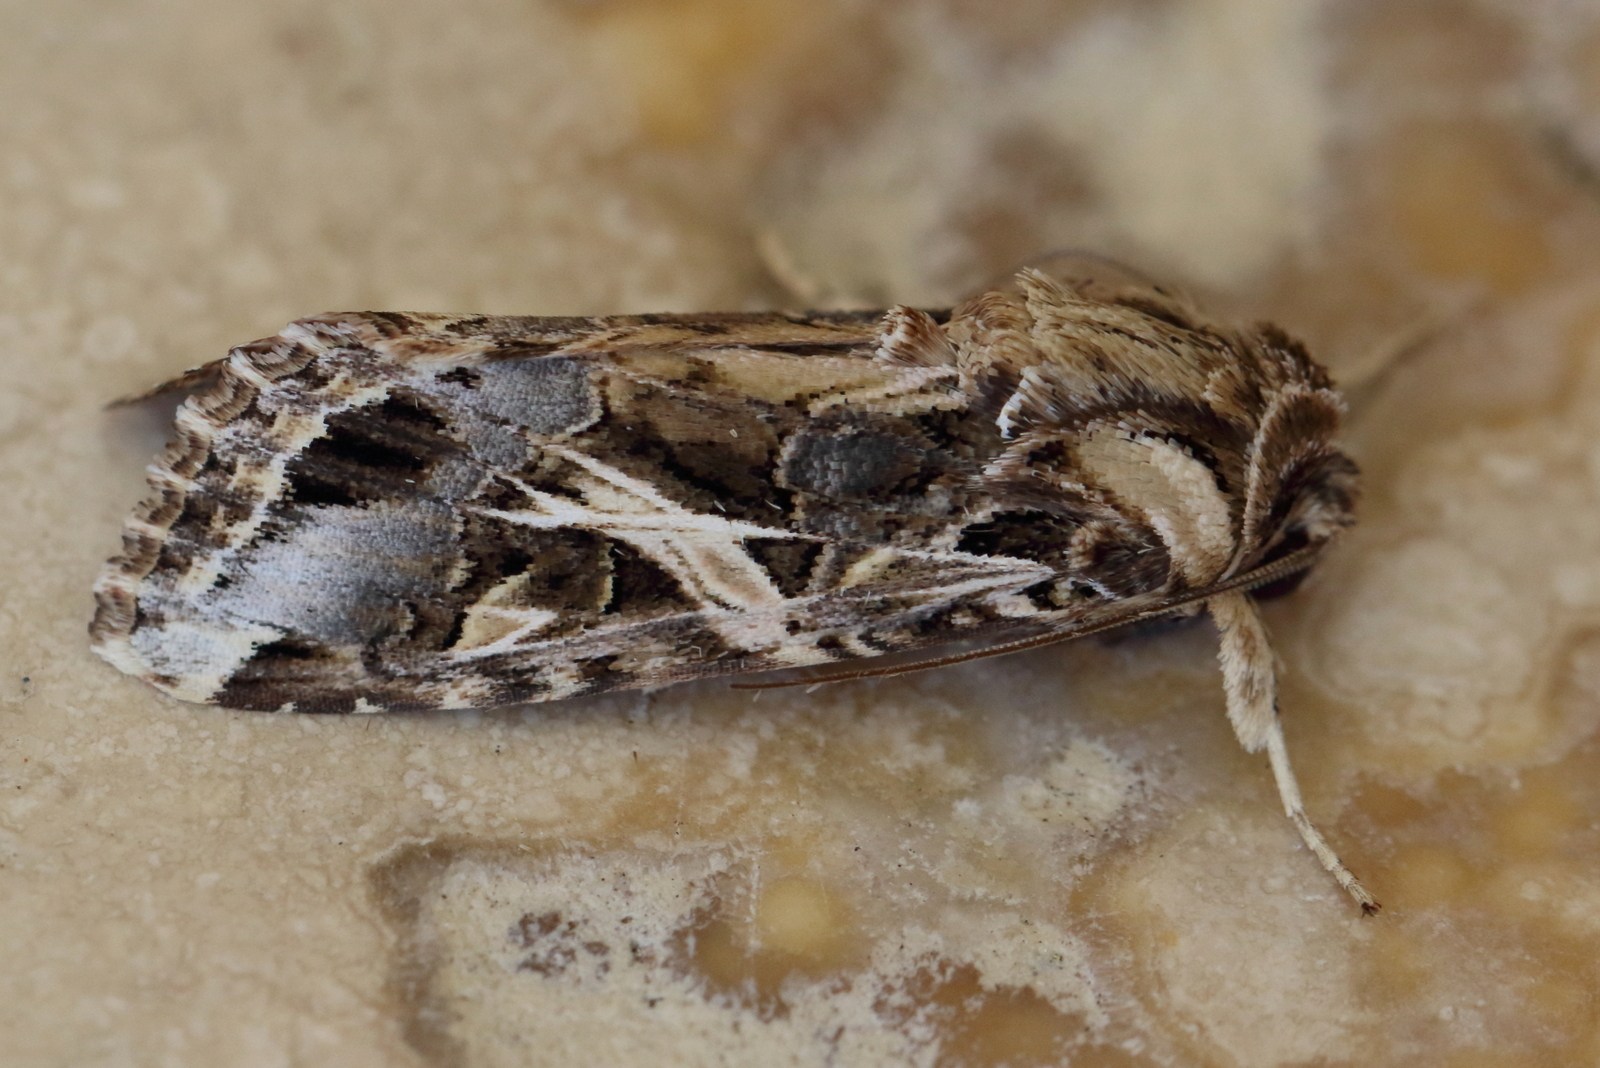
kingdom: Animalia
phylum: Arthropoda
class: Insecta
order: Lepidoptera
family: Noctuidae
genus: Spodoptera
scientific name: Spodoptera litura
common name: Asian cotton leafworm
